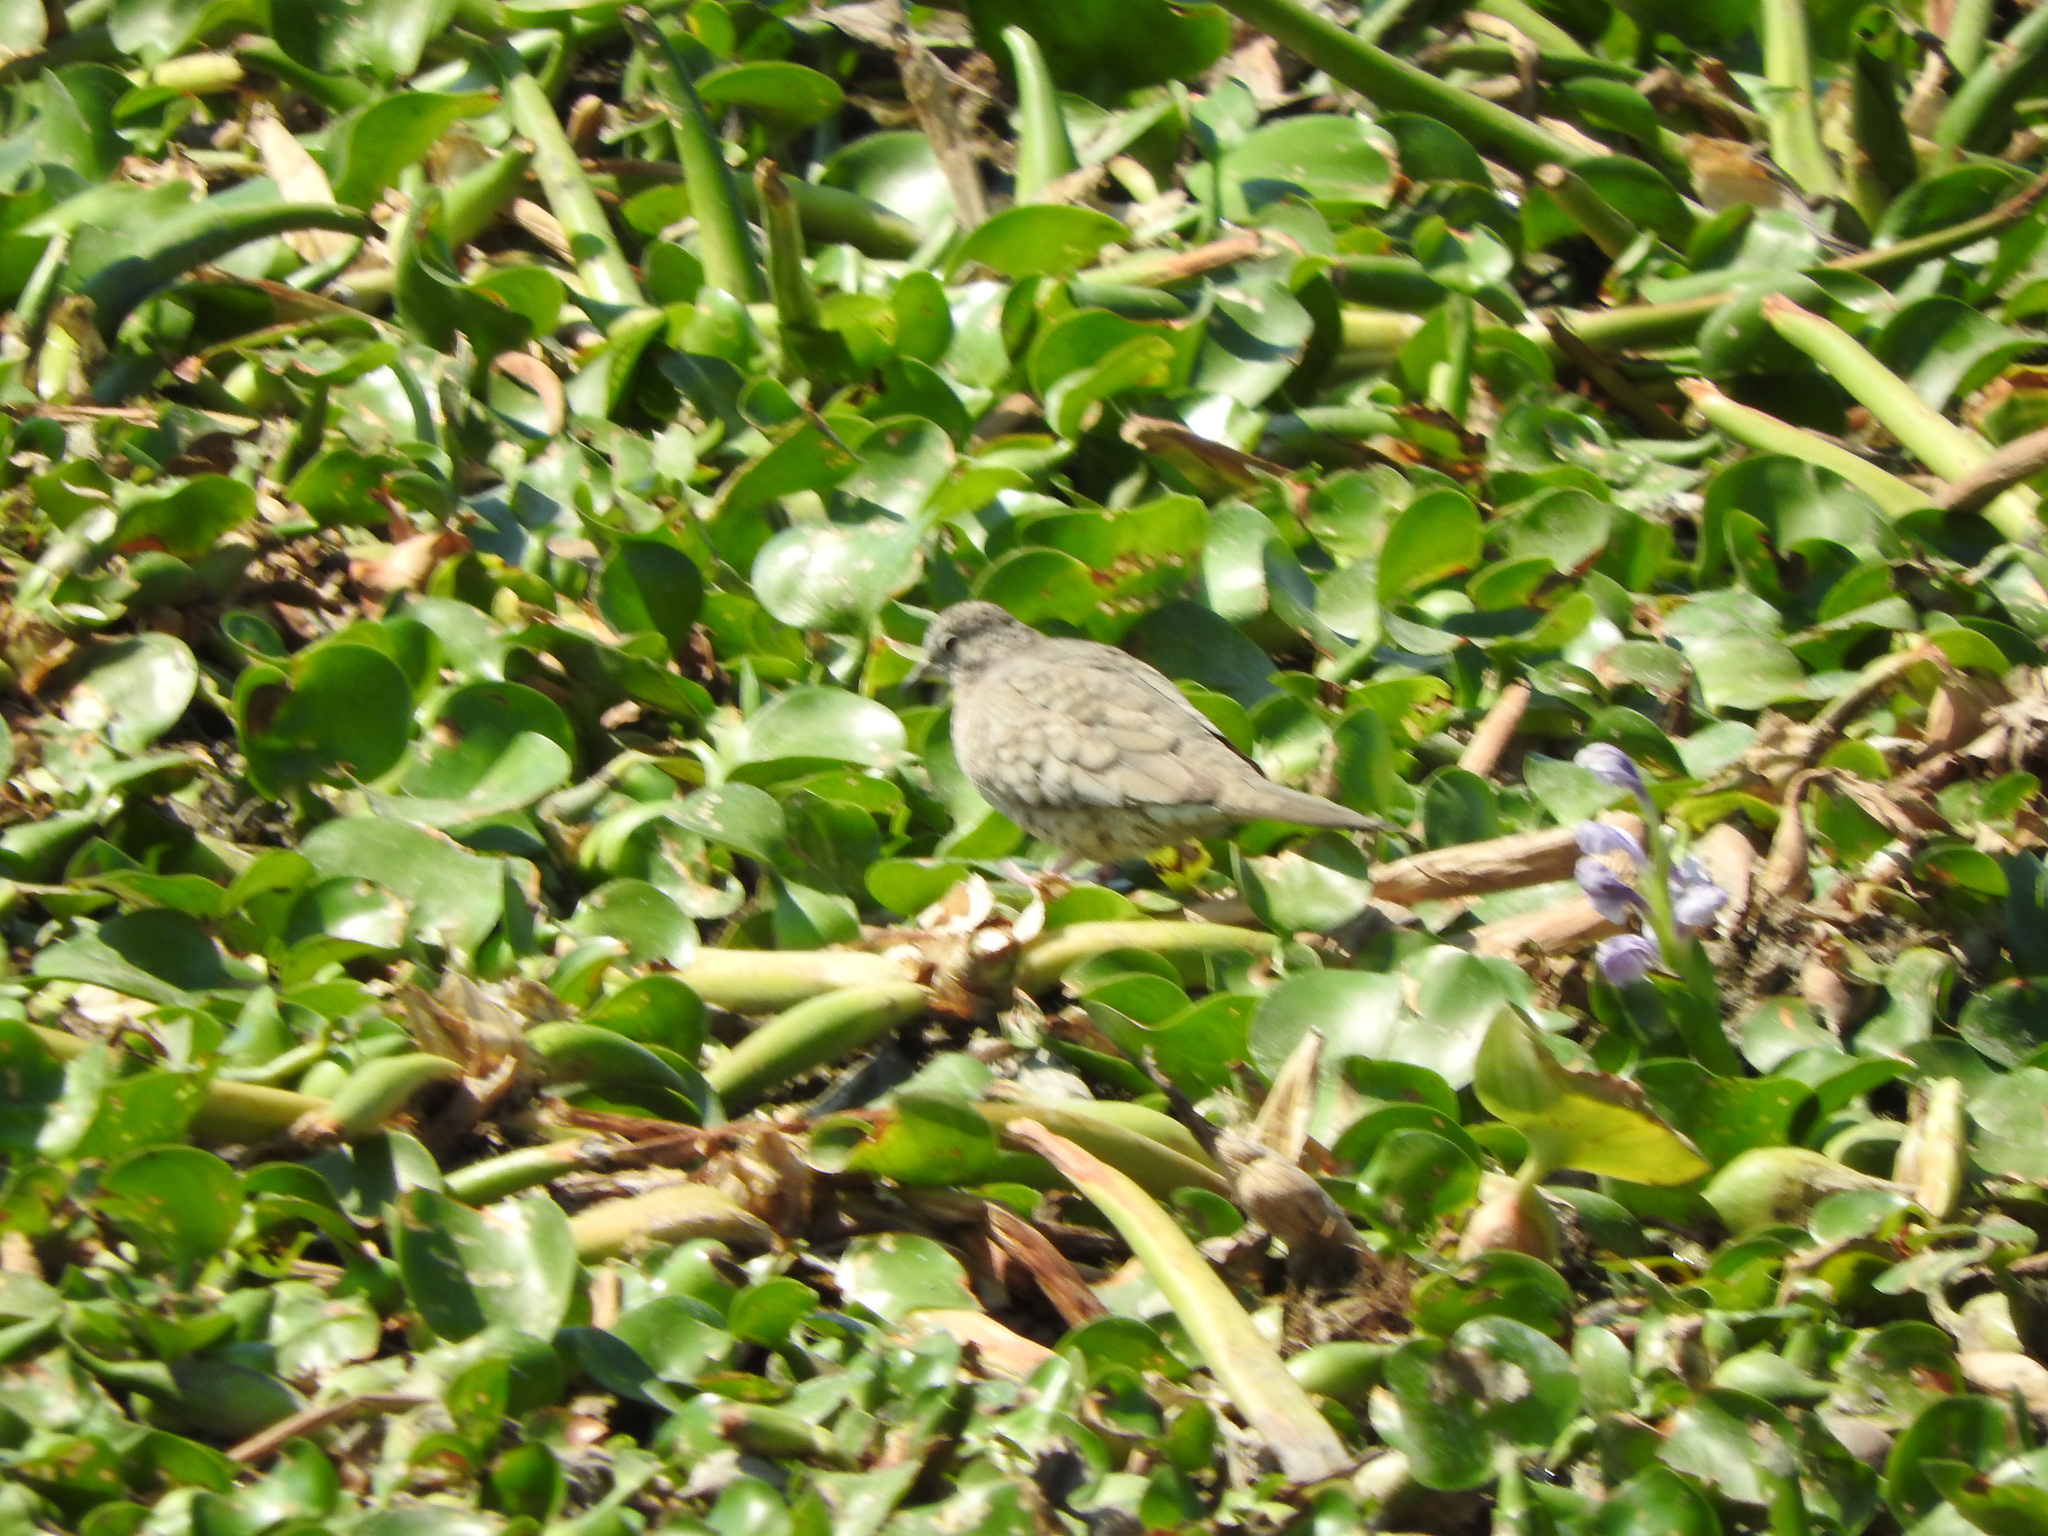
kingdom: Animalia
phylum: Chordata
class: Aves
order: Columbiformes
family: Columbidae
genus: Columbina
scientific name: Columbina inca
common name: Inca dove
